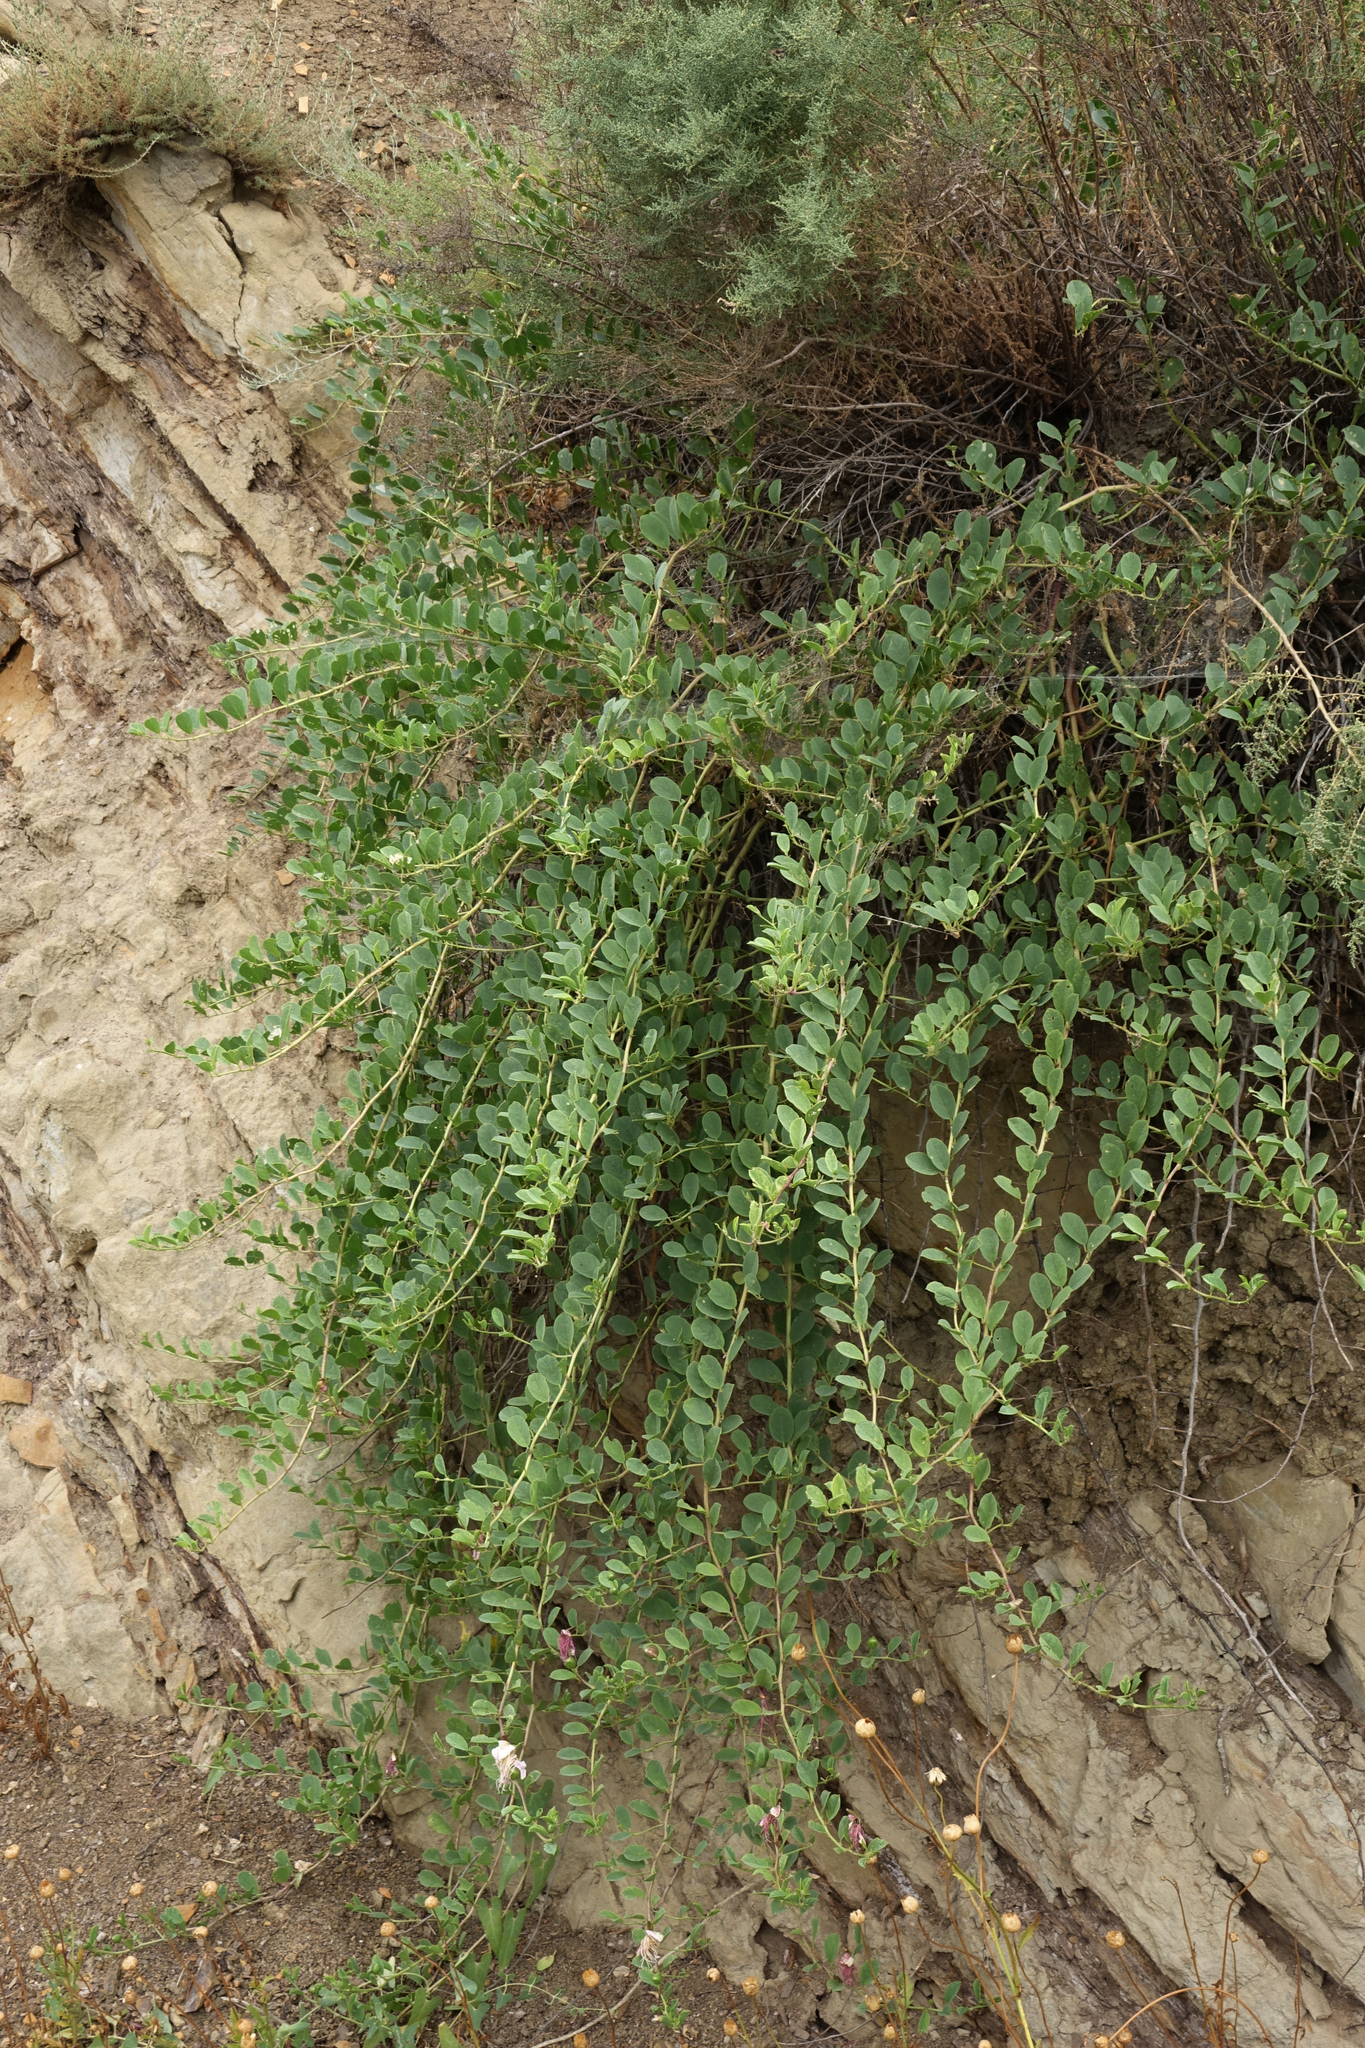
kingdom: Plantae
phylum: Tracheophyta
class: Magnoliopsida
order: Brassicales
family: Capparaceae
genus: Capparis
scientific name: Capparis spinosa
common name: Caper
